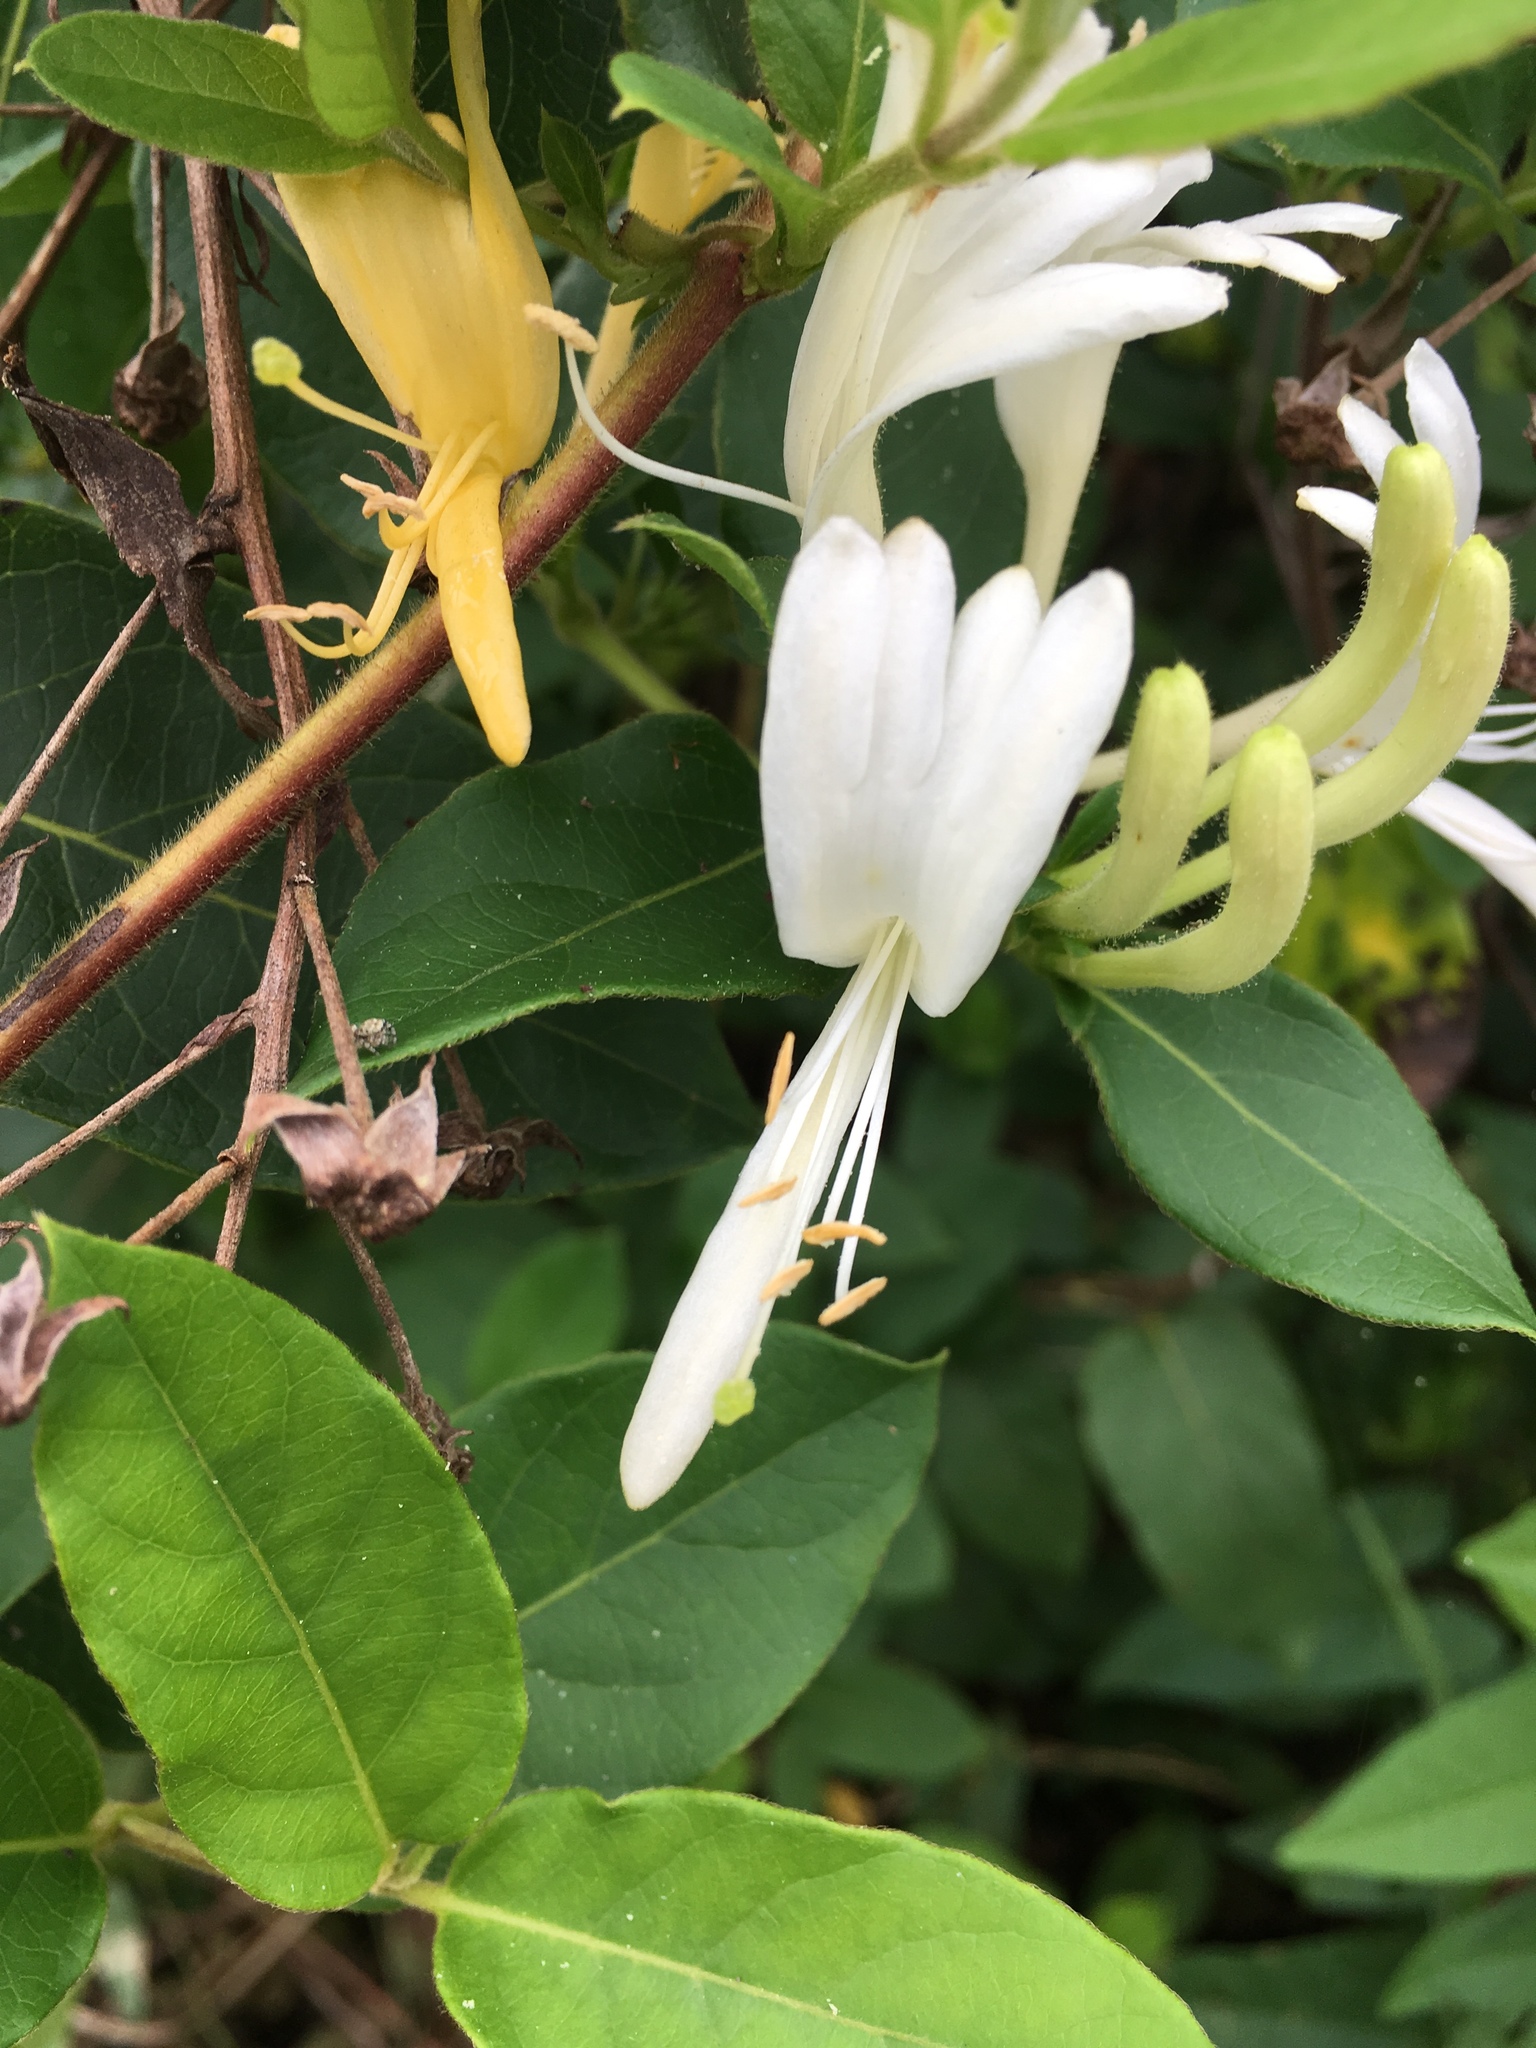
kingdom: Plantae
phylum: Tracheophyta
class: Magnoliopsida
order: Dipsacales
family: Caprifoliaceae
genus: Lonicera
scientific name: Lonicera japonica
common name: Japanese honeysuckle
